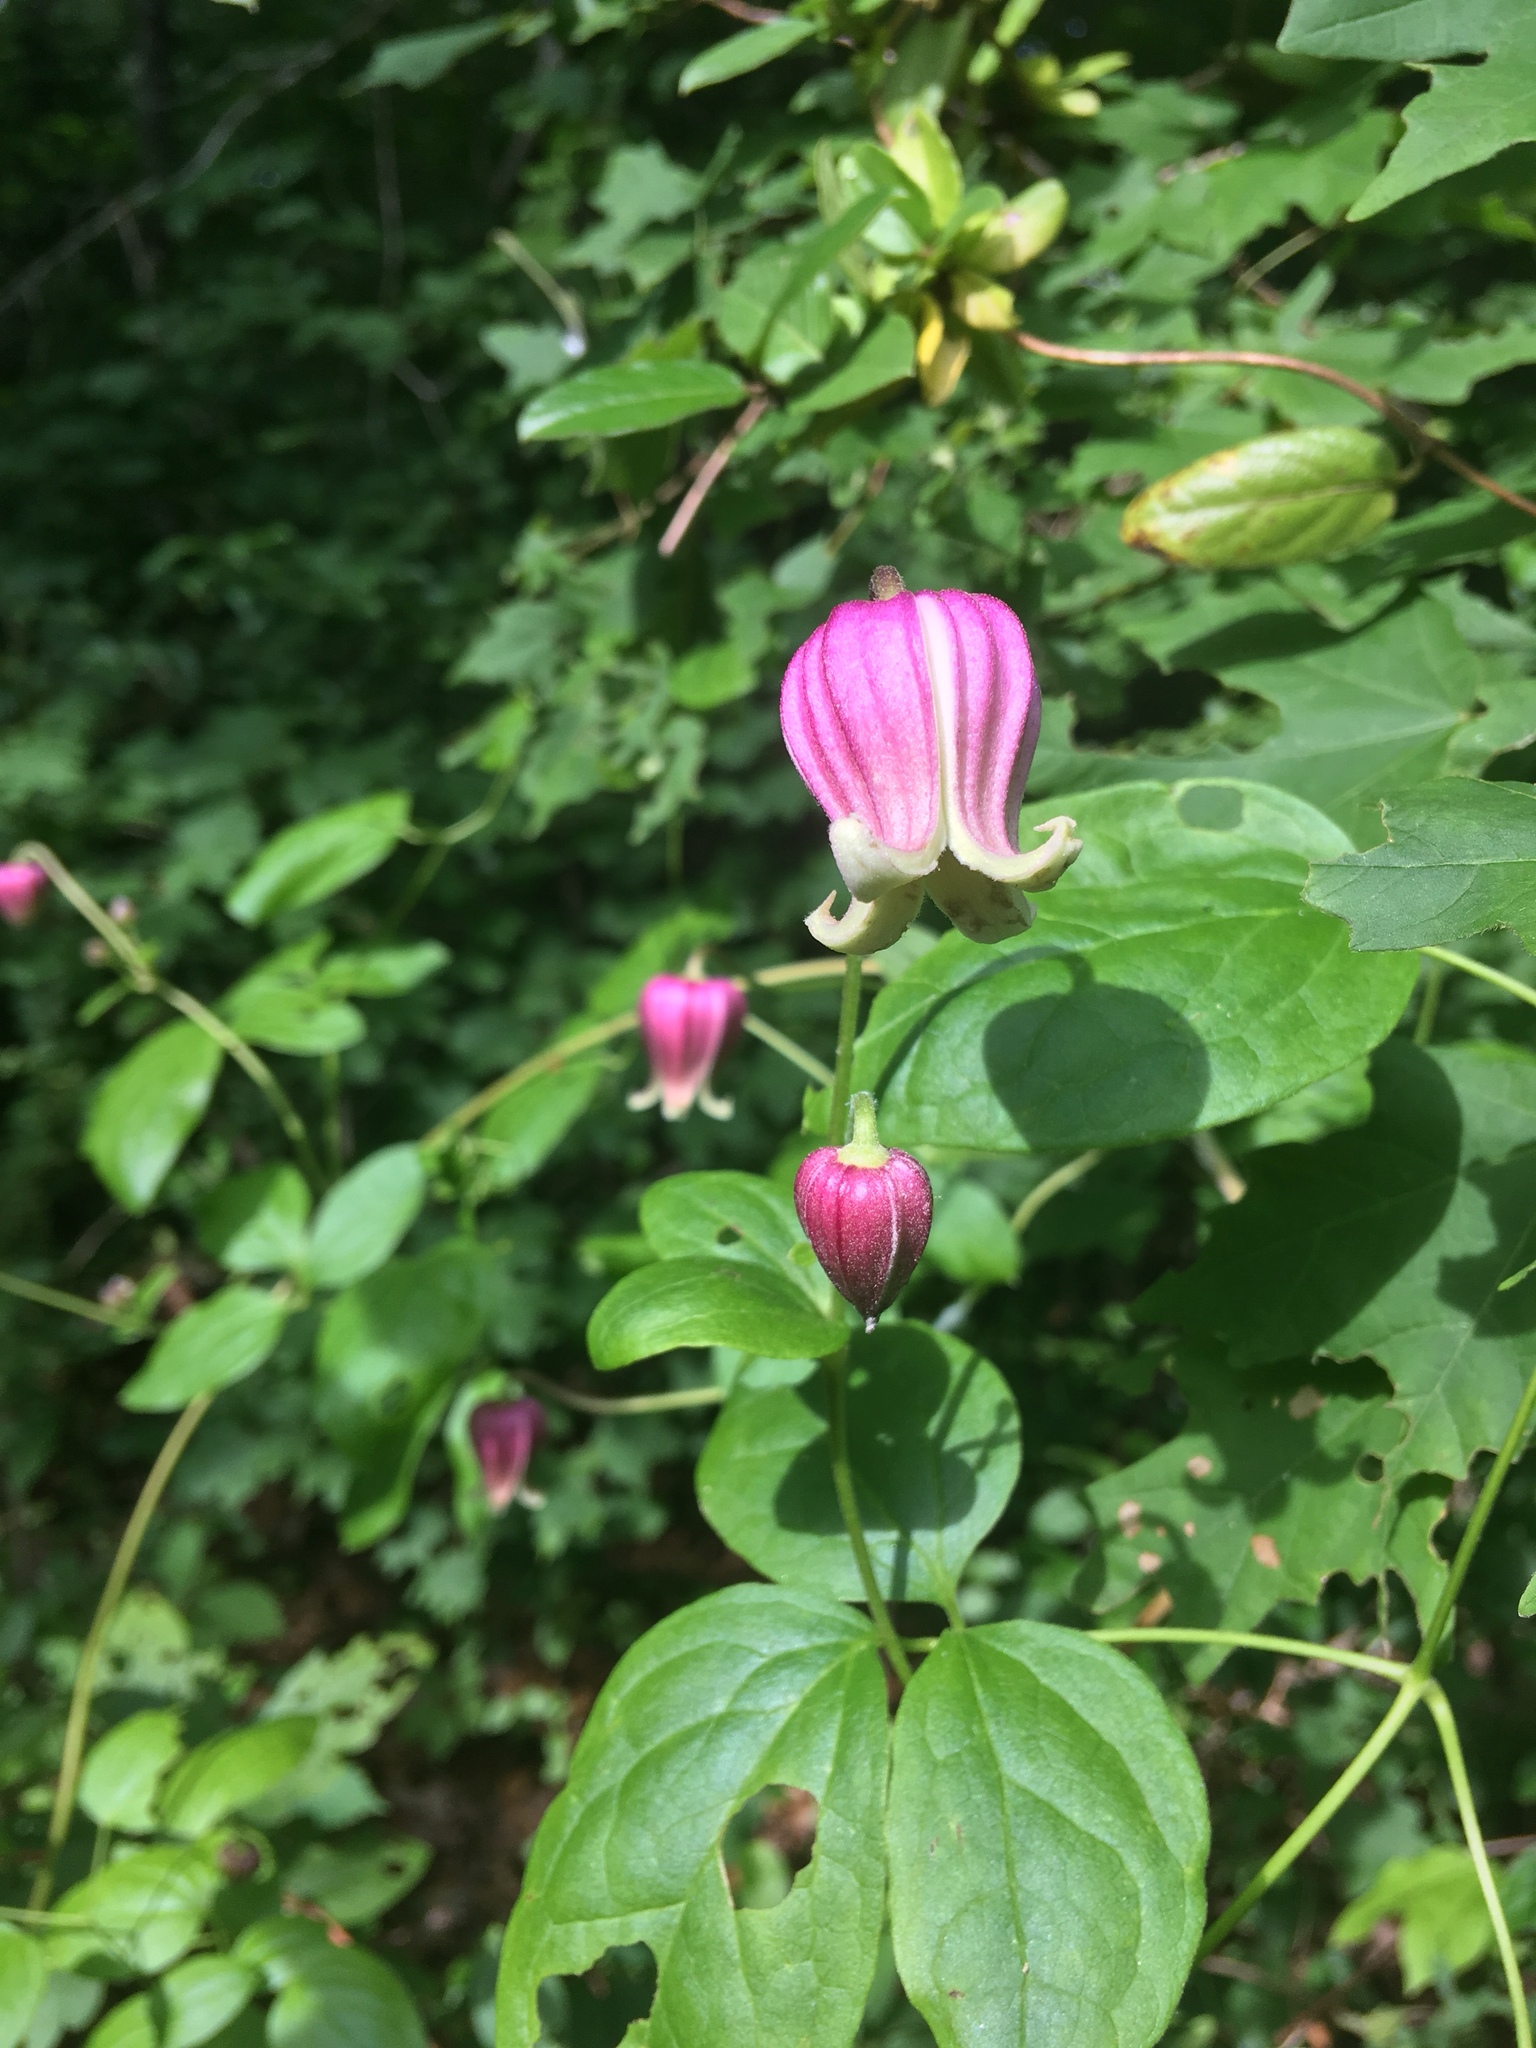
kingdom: Plantae
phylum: Tracheophyta
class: Magnoliopsida
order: Ranunculales
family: Ranunculaceae
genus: Clematis
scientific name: Clematis viorna
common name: Leather-flower
